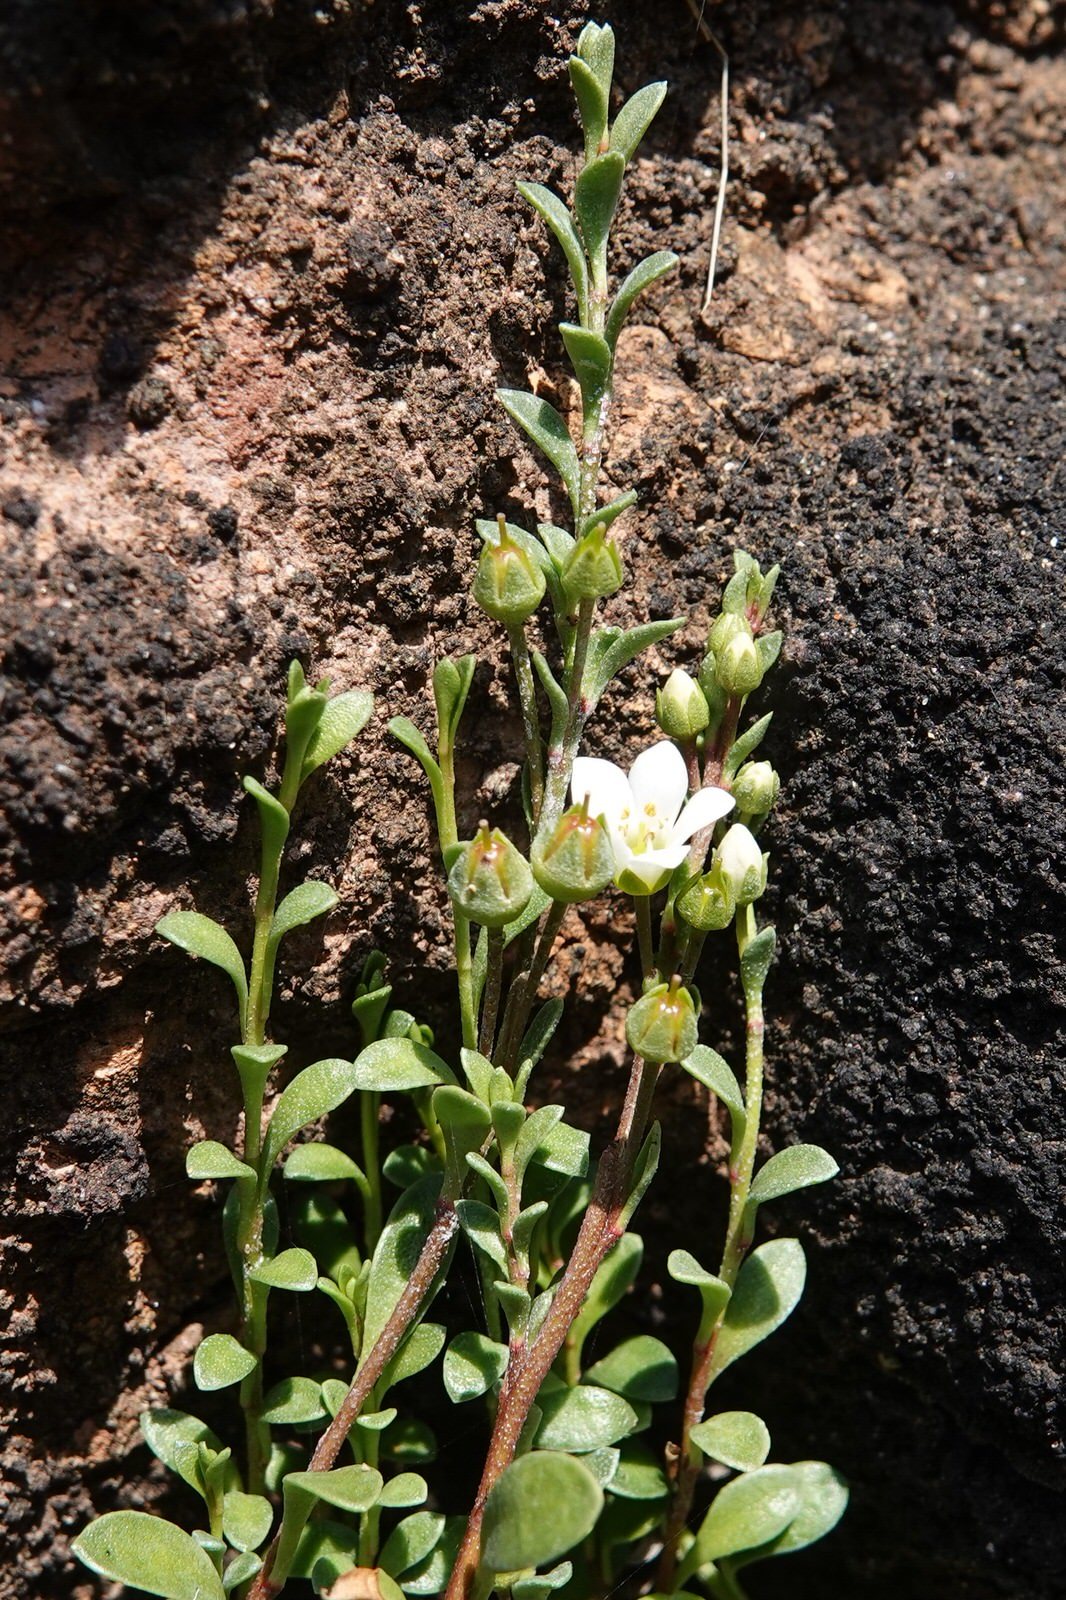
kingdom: Plantae
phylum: Tracheophyta
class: Magnoliopsida
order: Ericales
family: Primulaceae
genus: Samolus
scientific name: Samolus repens
